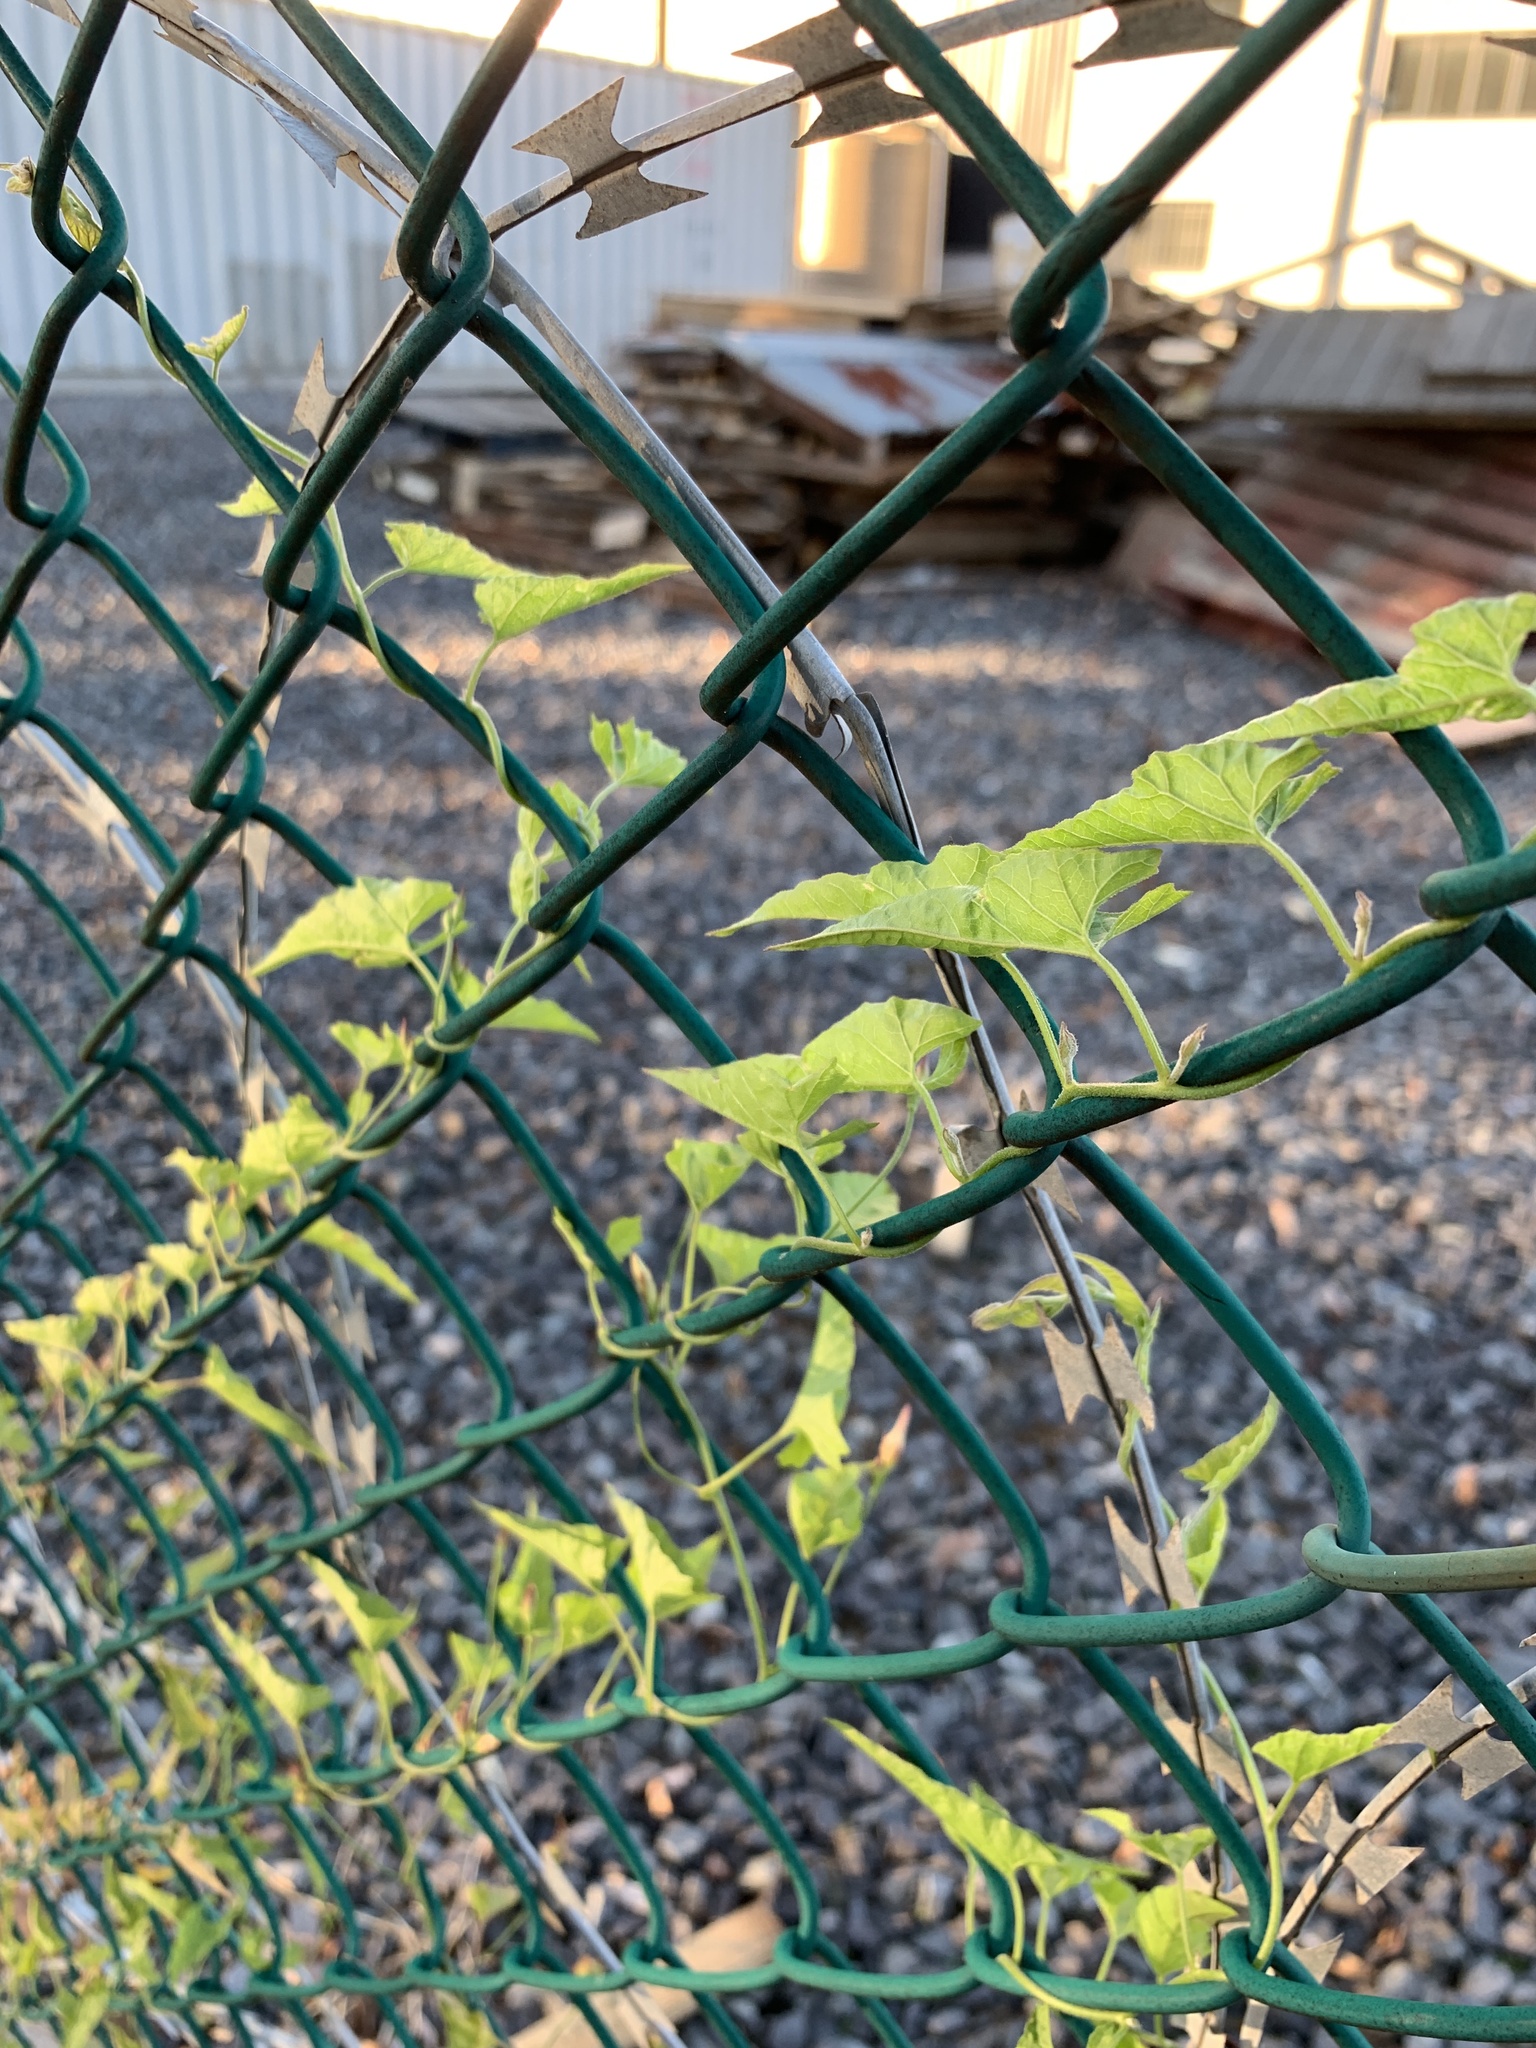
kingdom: Plantae
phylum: Tracheophyta
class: Magnoliopsida
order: Solanales
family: Convolvulaceae
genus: Convolvulus
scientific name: Convolvulus farinosus
